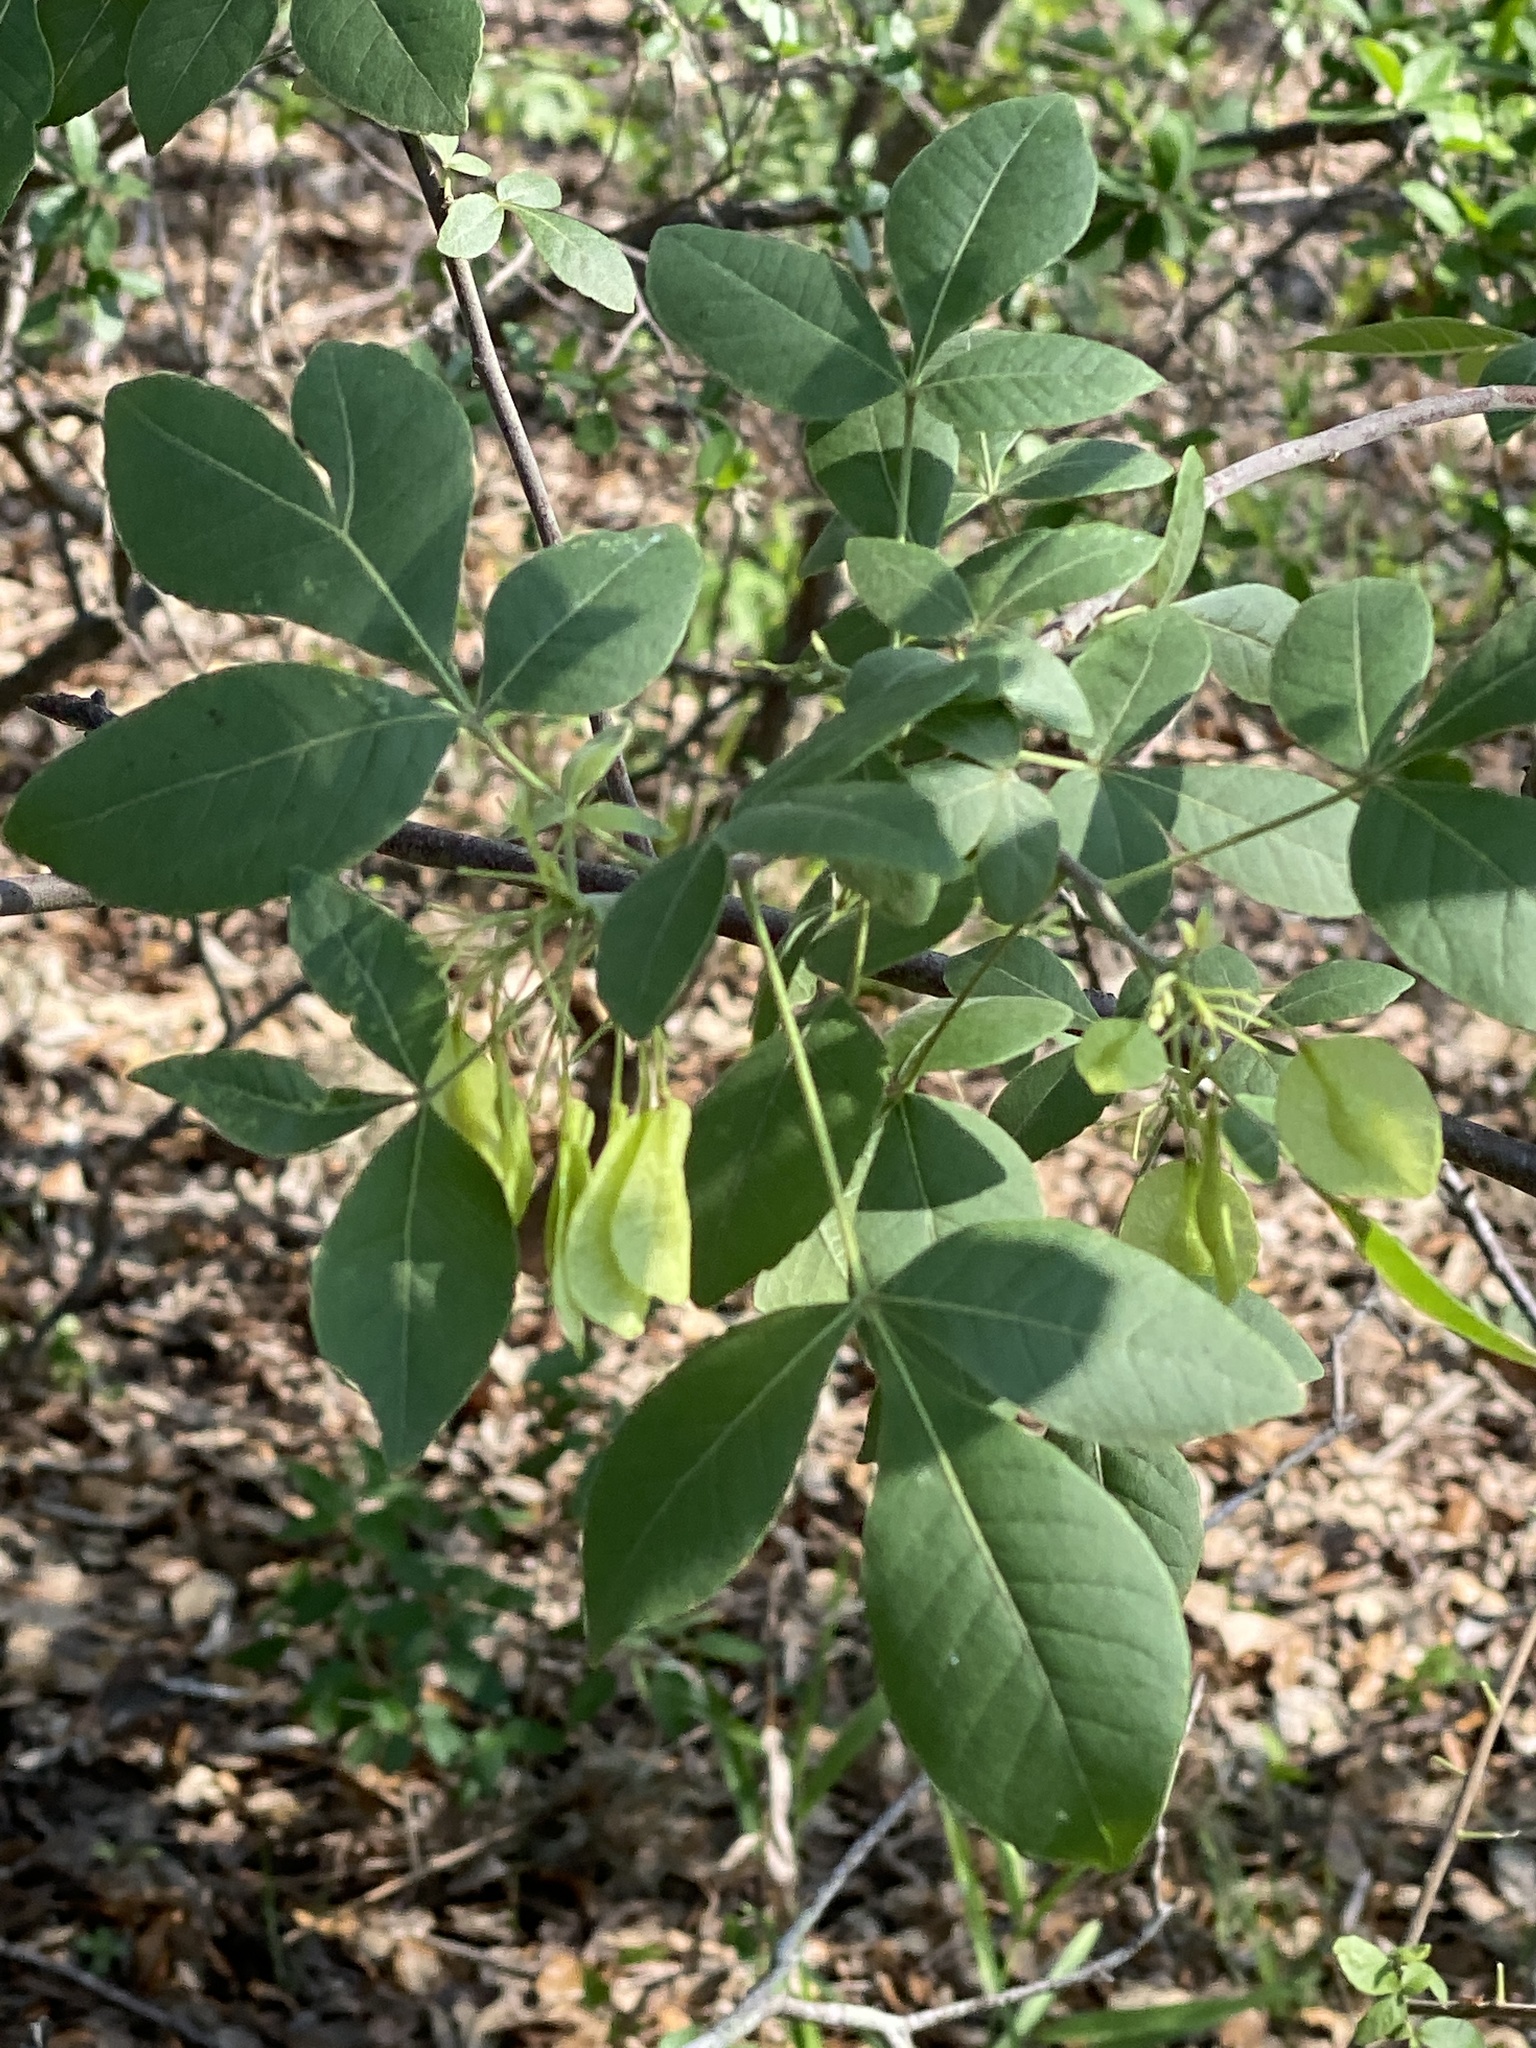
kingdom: Plantae
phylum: Tracheophyta
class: Magnoliopsida
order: Sapindales
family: Rutaceae
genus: Ptelea
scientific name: Ptelea trifoliata
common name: Common hop-tree
